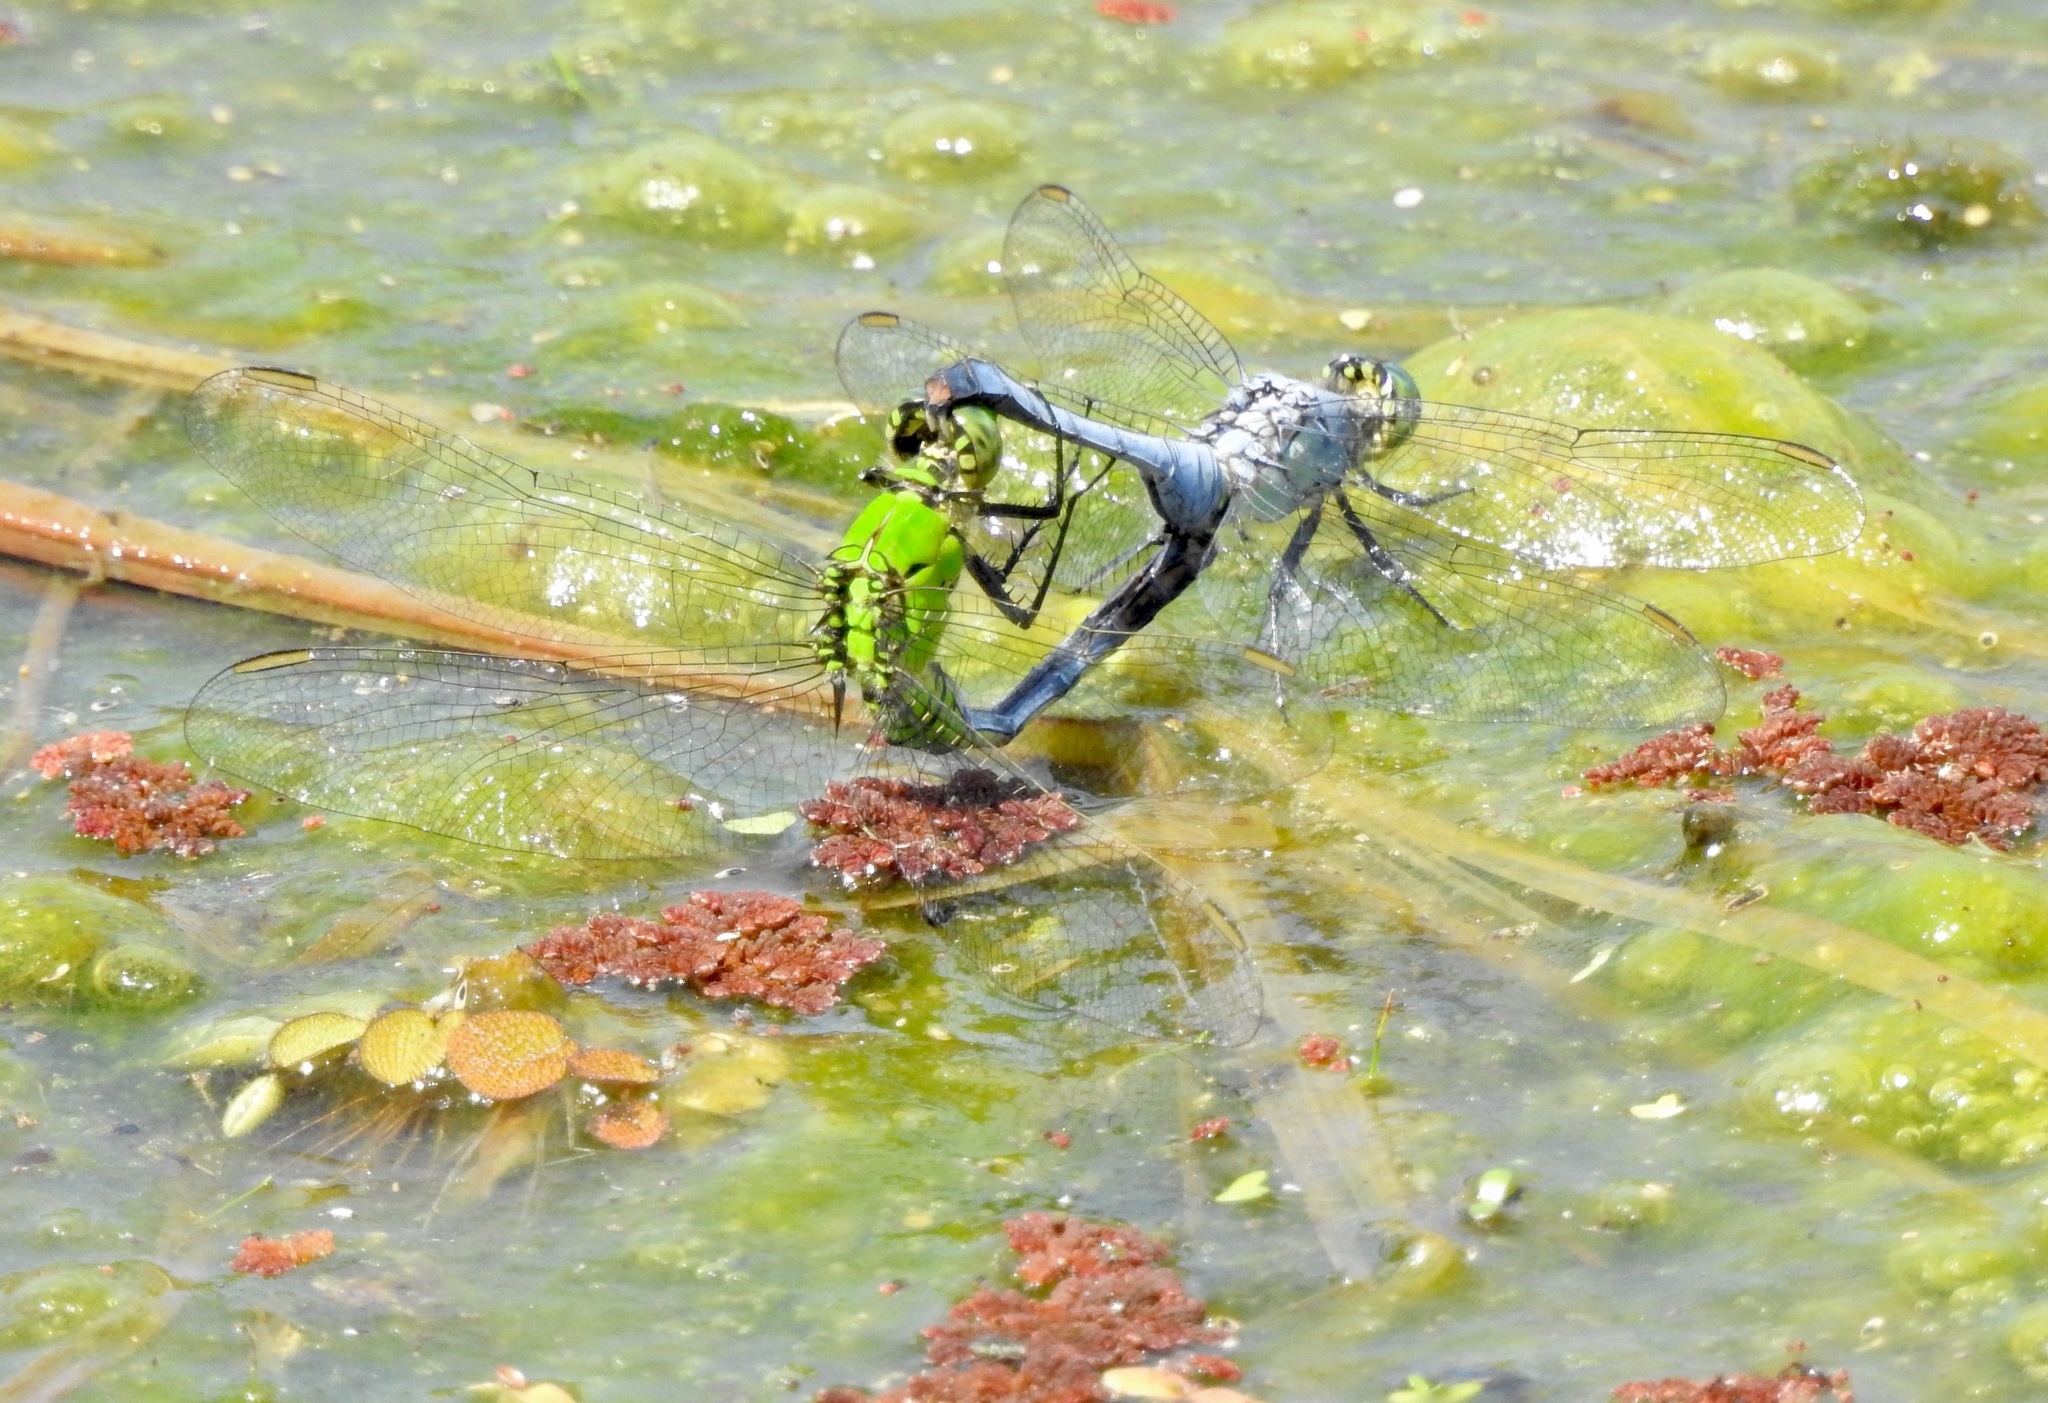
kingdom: Animalia
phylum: Arthropoda
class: Insecta
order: Odonata
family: Libellulidae
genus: Erythemis
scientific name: Erythemis simplicicollis
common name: Eastern pondhawk
